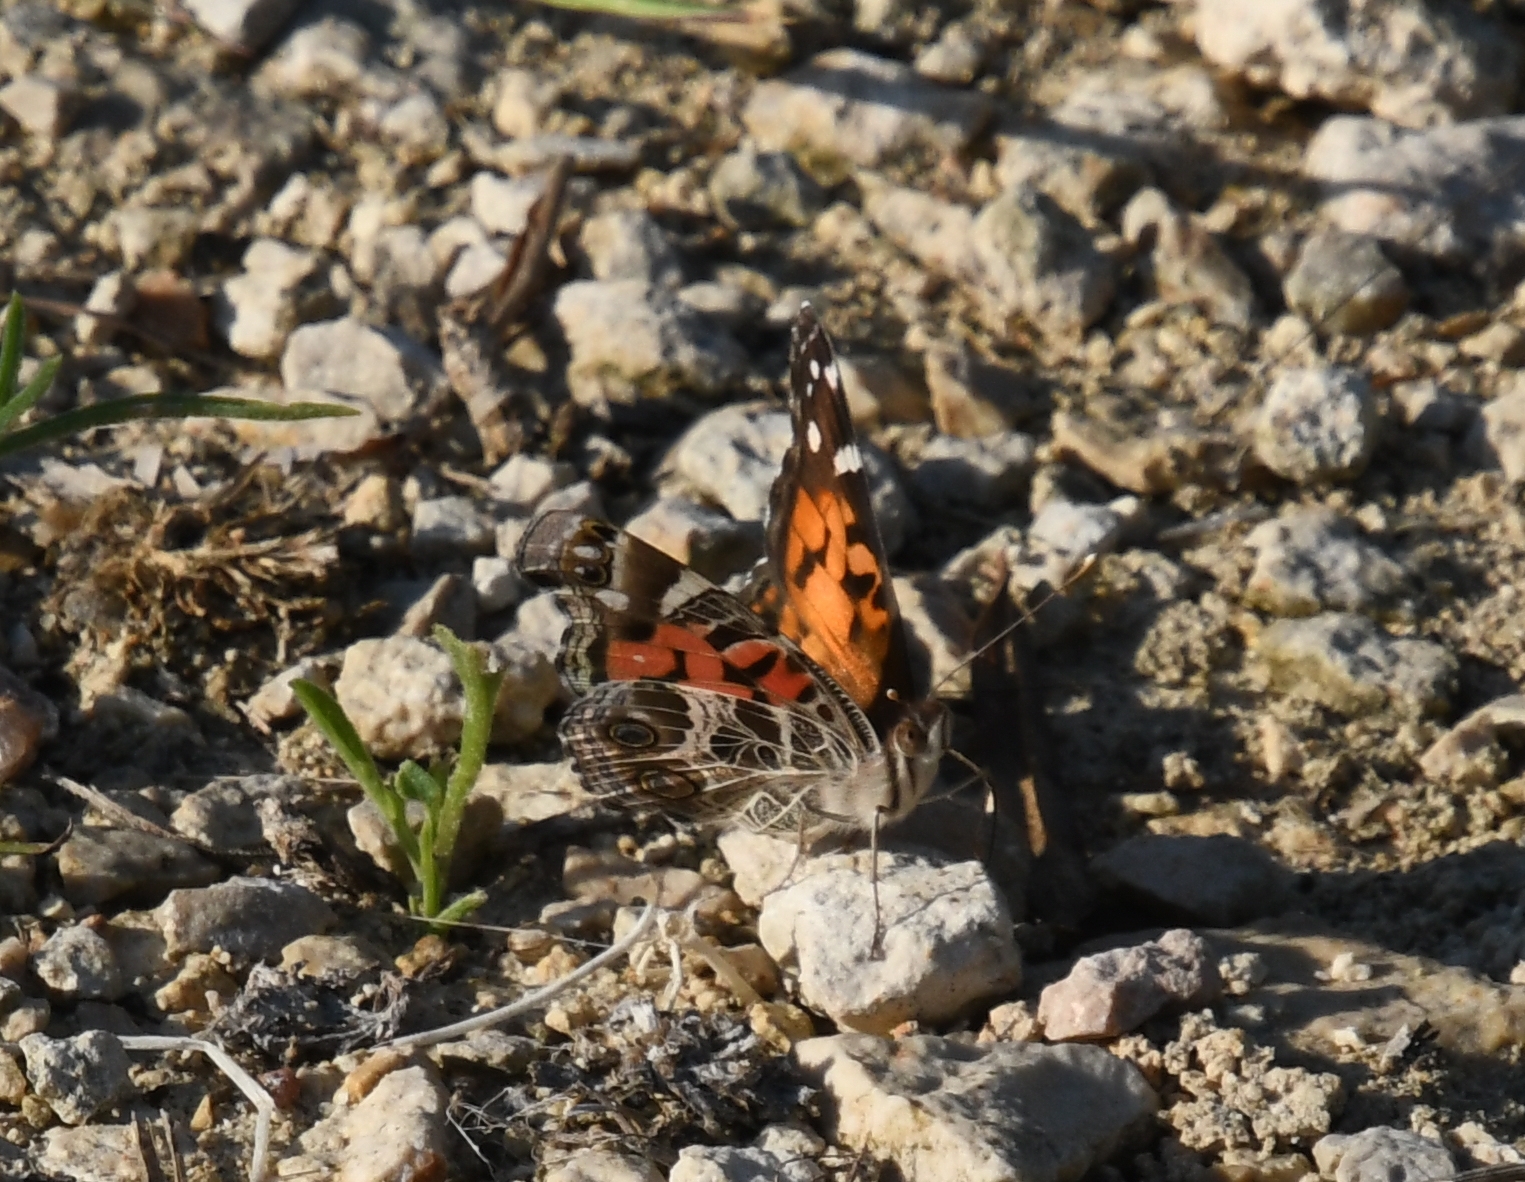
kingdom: Animalia
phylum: Arthropoda
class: Insecta
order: Lepidoptera
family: Nymphalidae
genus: Vanessa
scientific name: Vanessa virginiensis
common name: American lady
